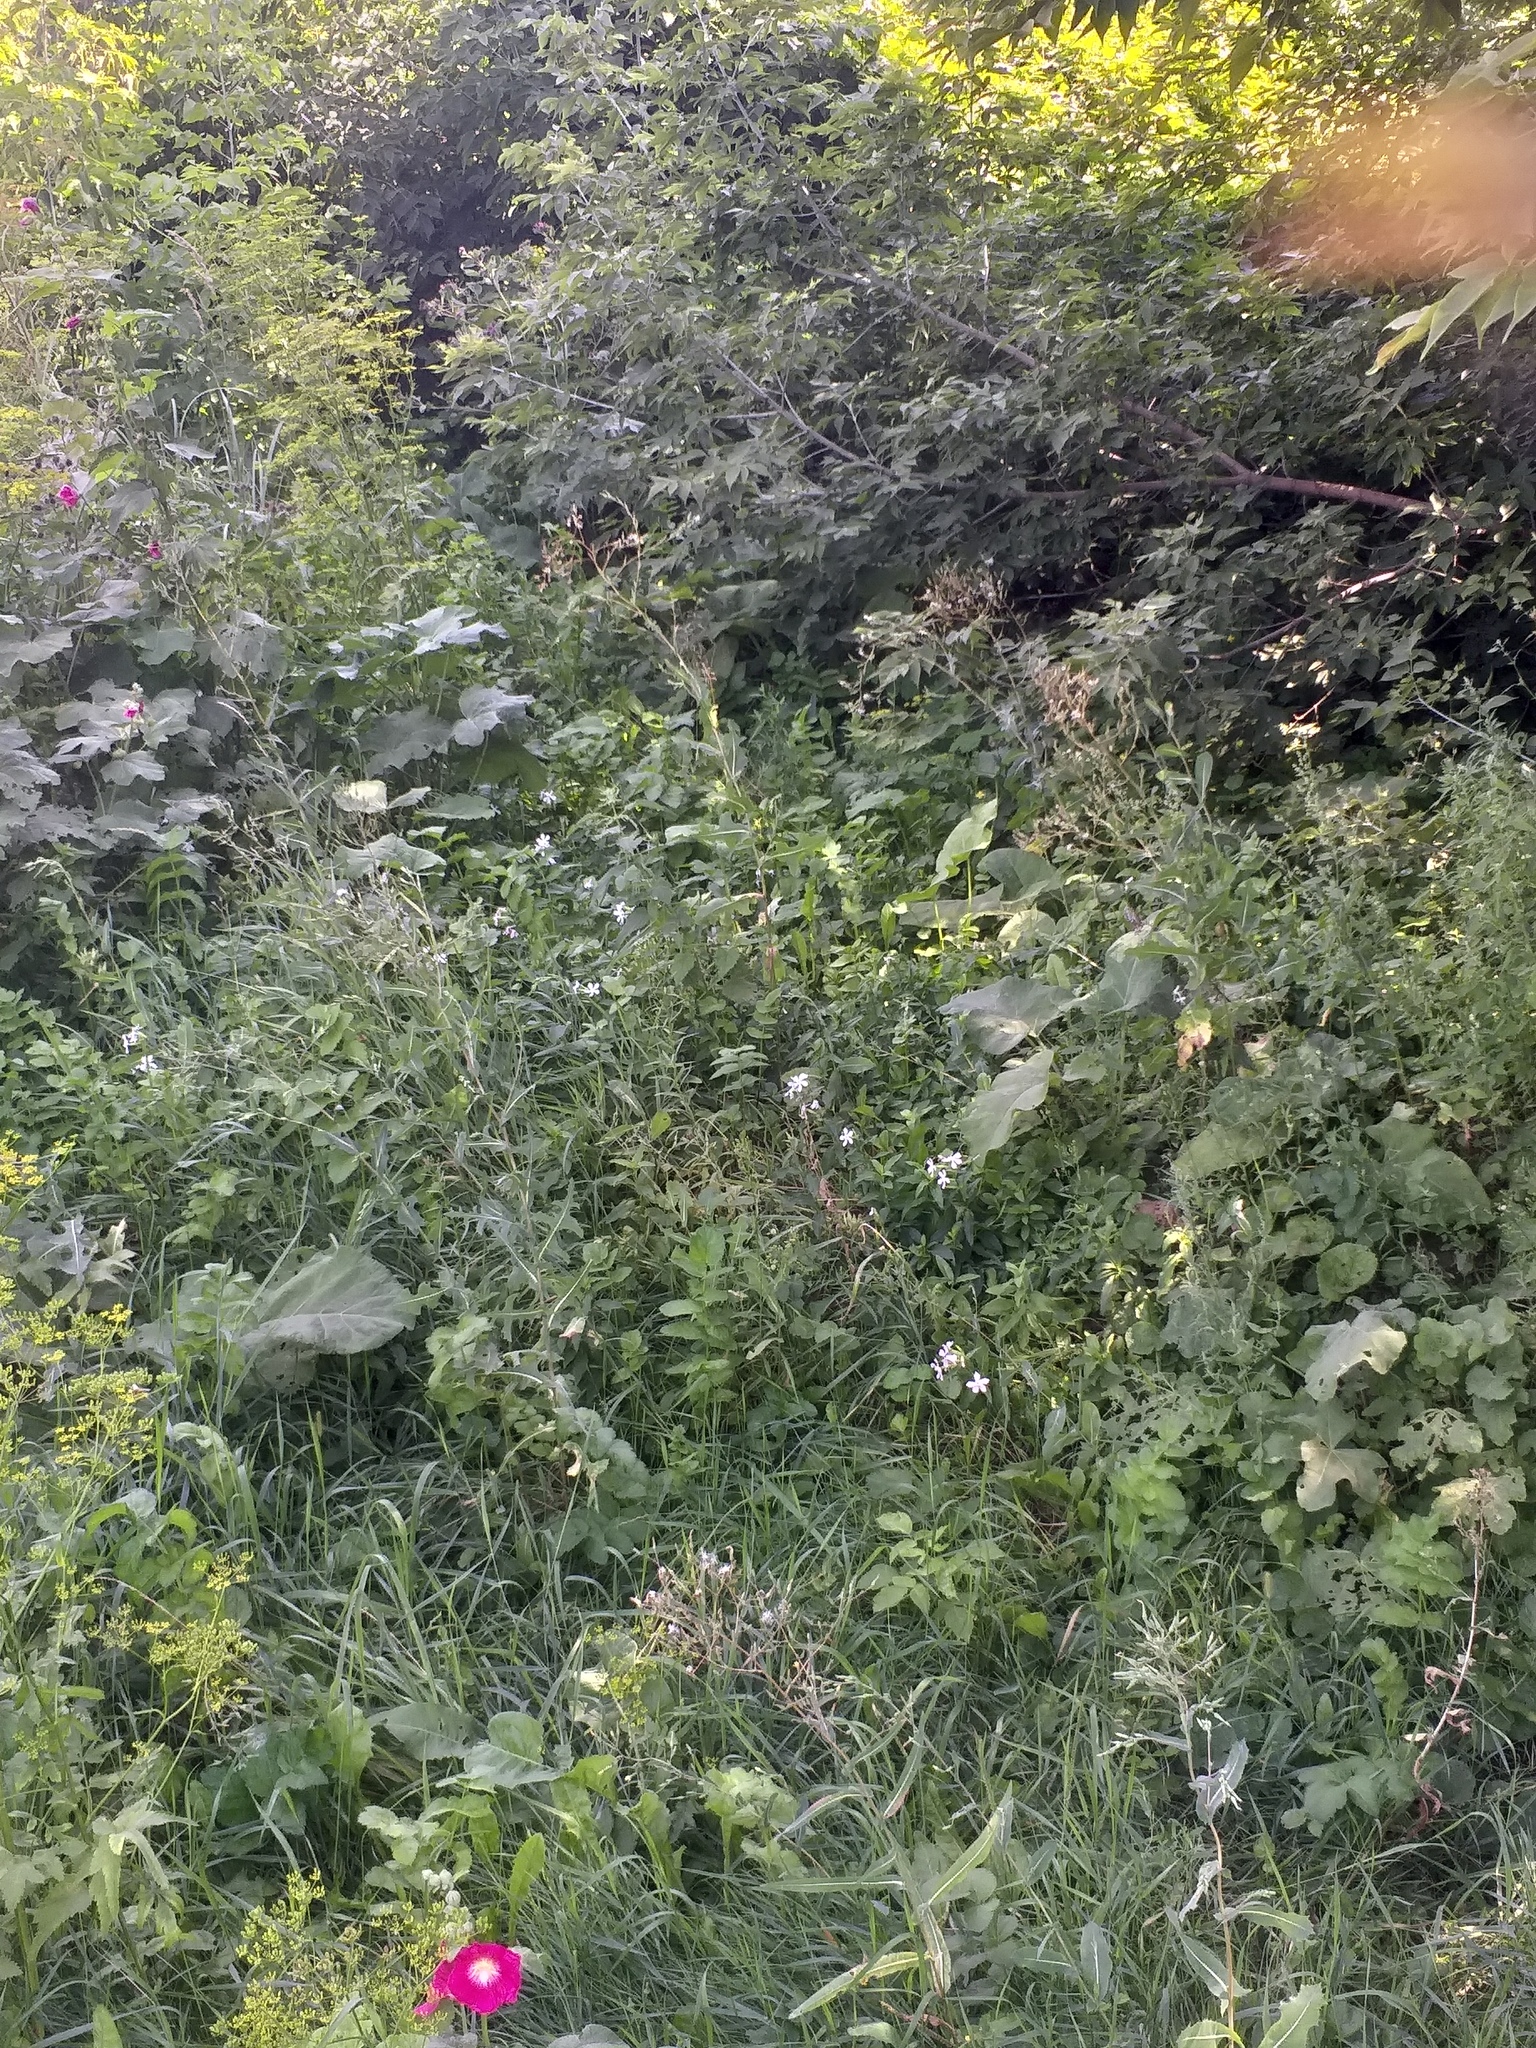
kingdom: Plantae
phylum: Tracheophyta
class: Magnoliopsida
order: Caryophyllales
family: Caryophyllaceae
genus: Saponaria
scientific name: Saponaria officinalis
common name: Soapwort
